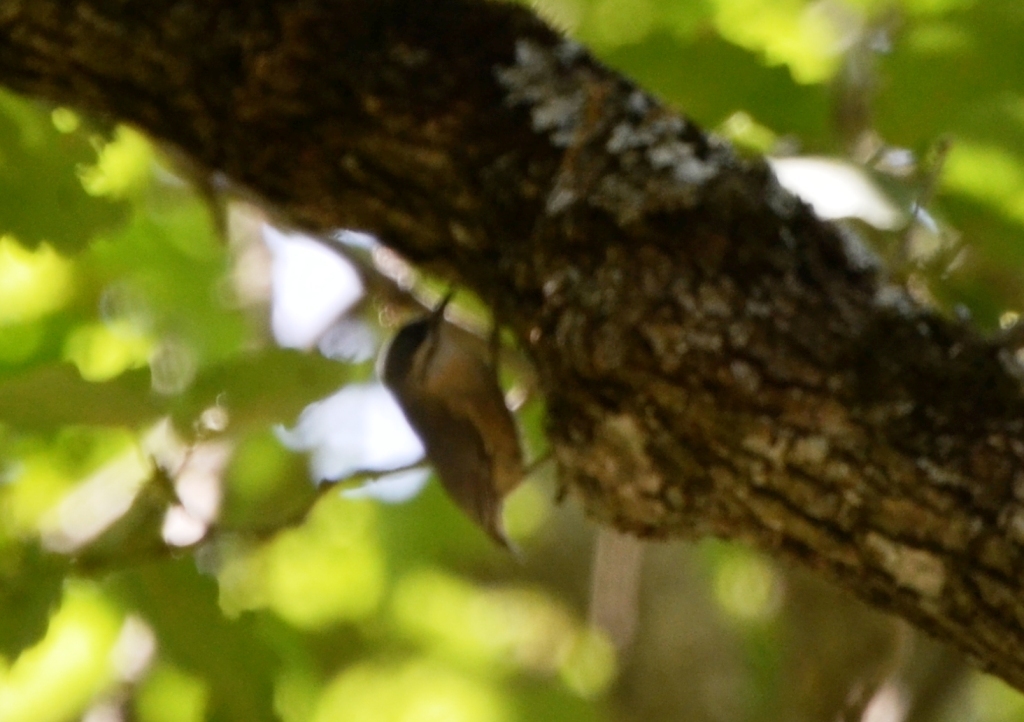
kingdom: Animalia
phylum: Chordata
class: Aves
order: Passeriformes
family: Sittidae
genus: Sitta
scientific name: Sitta ledanti
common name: Algerian nuthatch
